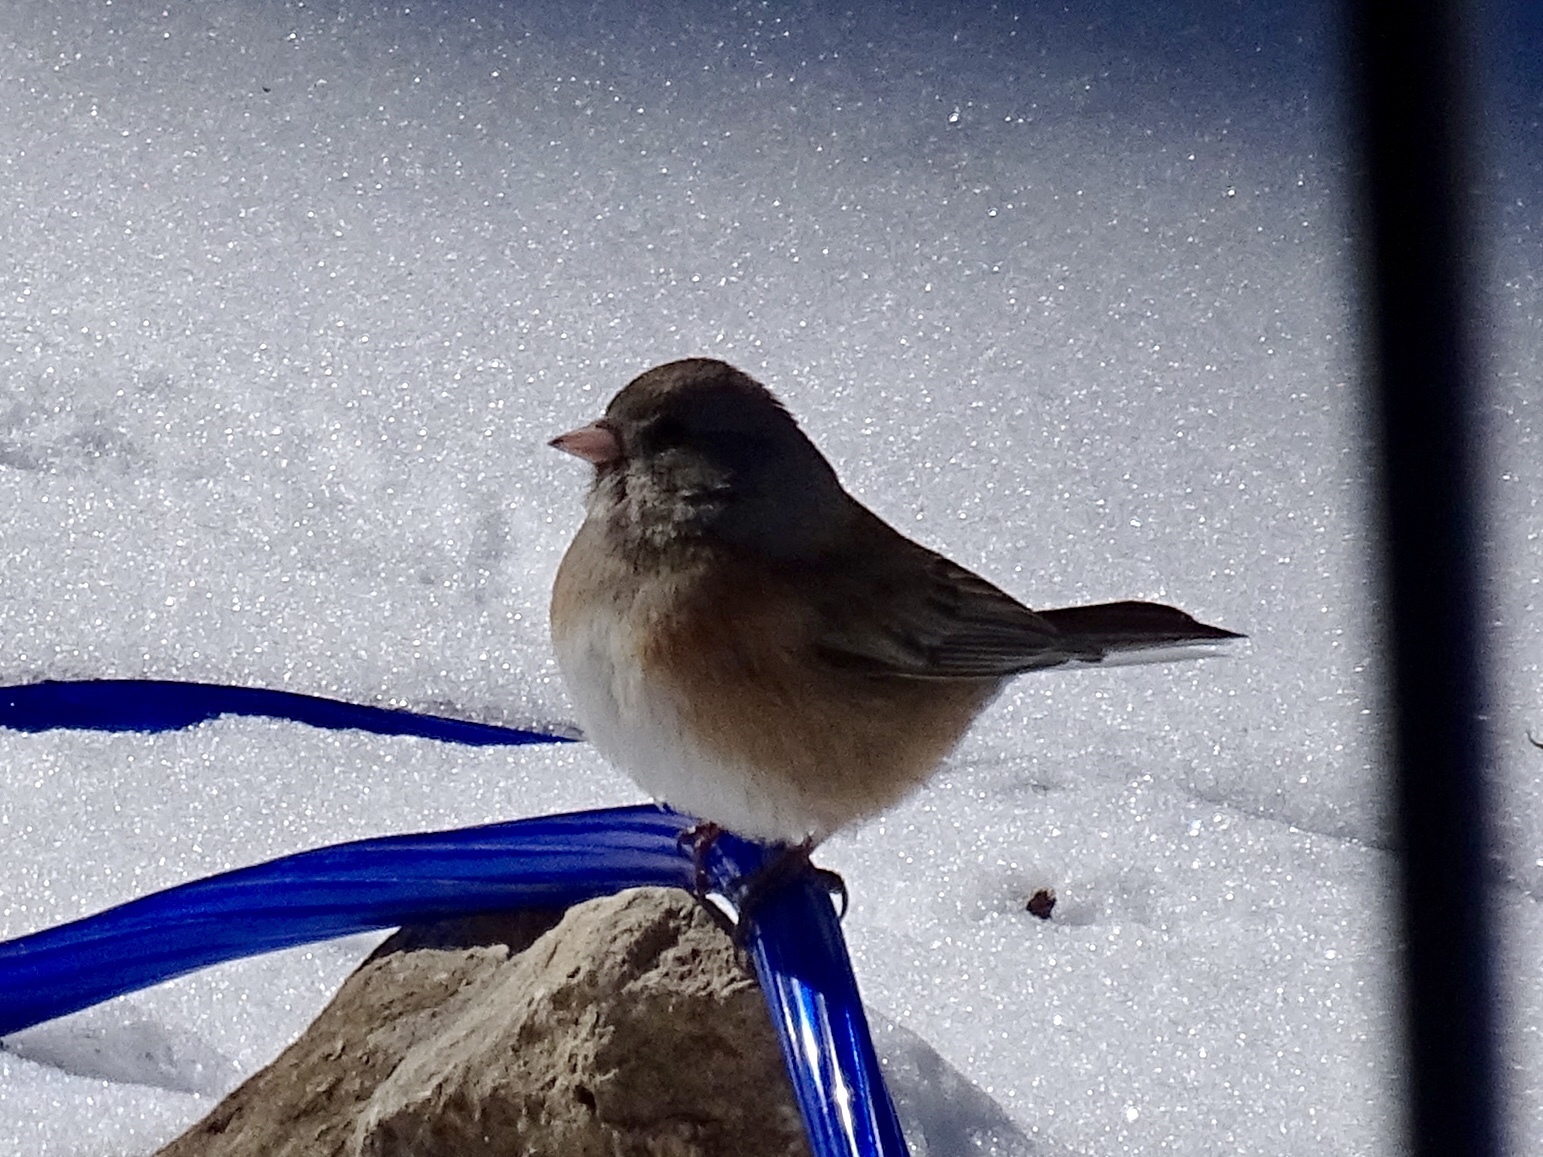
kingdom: Animalia
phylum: Chordata
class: Aves
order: Passeriformes
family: Passerellidae
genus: Junco
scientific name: Junco hyemalis
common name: Dark-eyed junco
